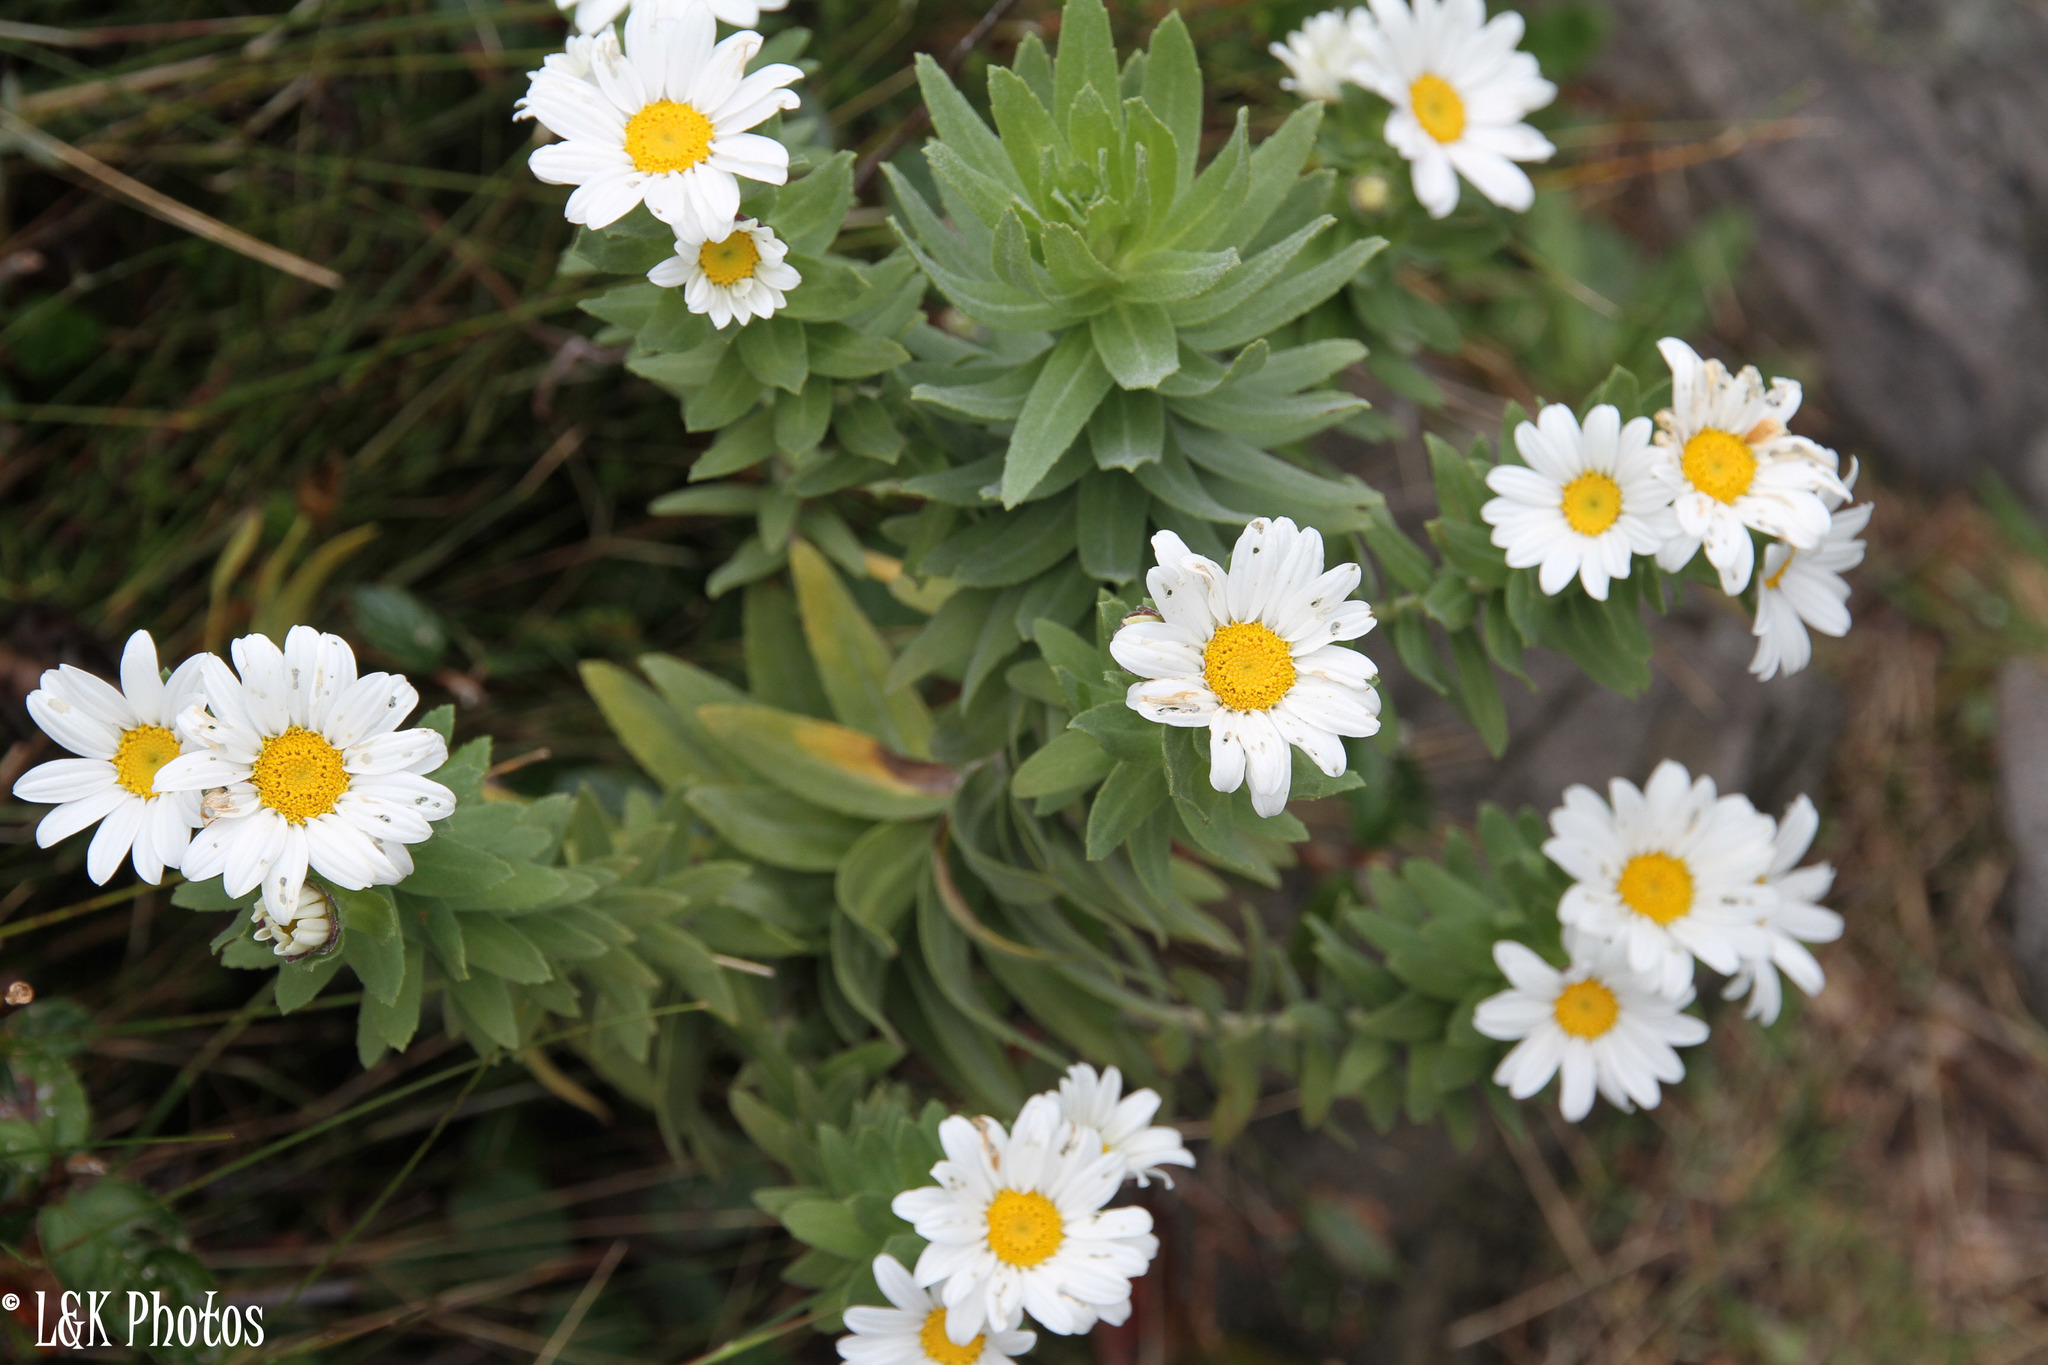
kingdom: Plantae
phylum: Tracheophyta
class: Magnoliopsida
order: Asterales
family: Asteraceae
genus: Osmitopsis
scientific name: Osmitopsis asteriscoides
